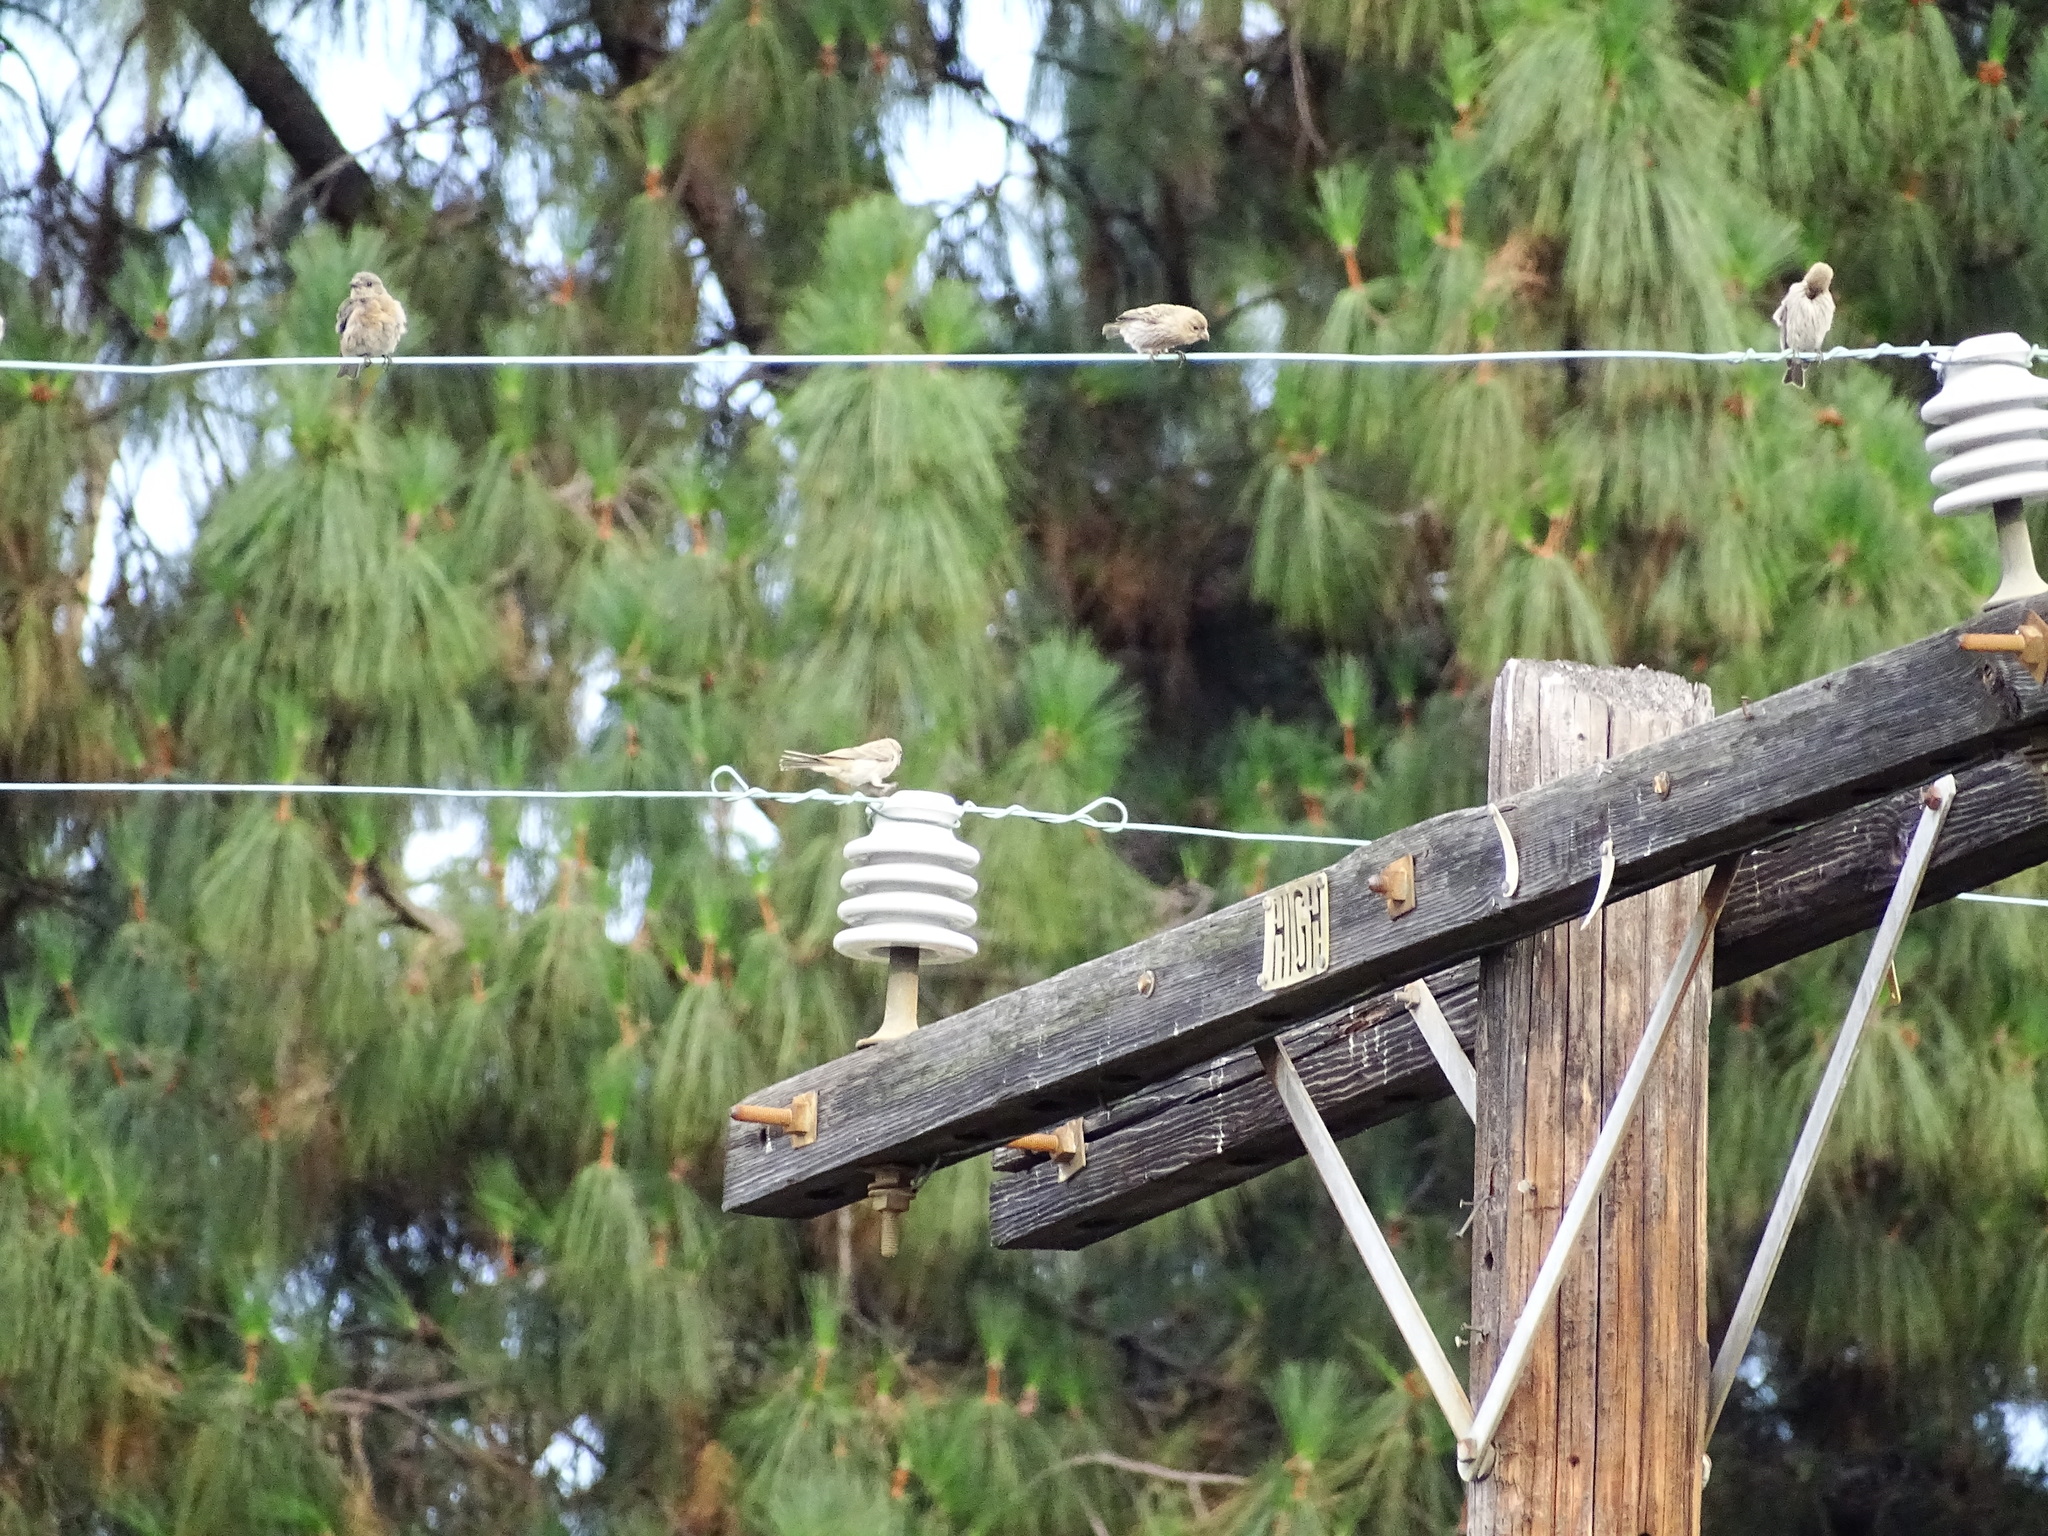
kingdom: Animalia
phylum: Chordata
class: Aves
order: Passeriformes
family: Fringillidae
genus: Haemorhous
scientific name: Haemorhous mexicanus
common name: House finch
